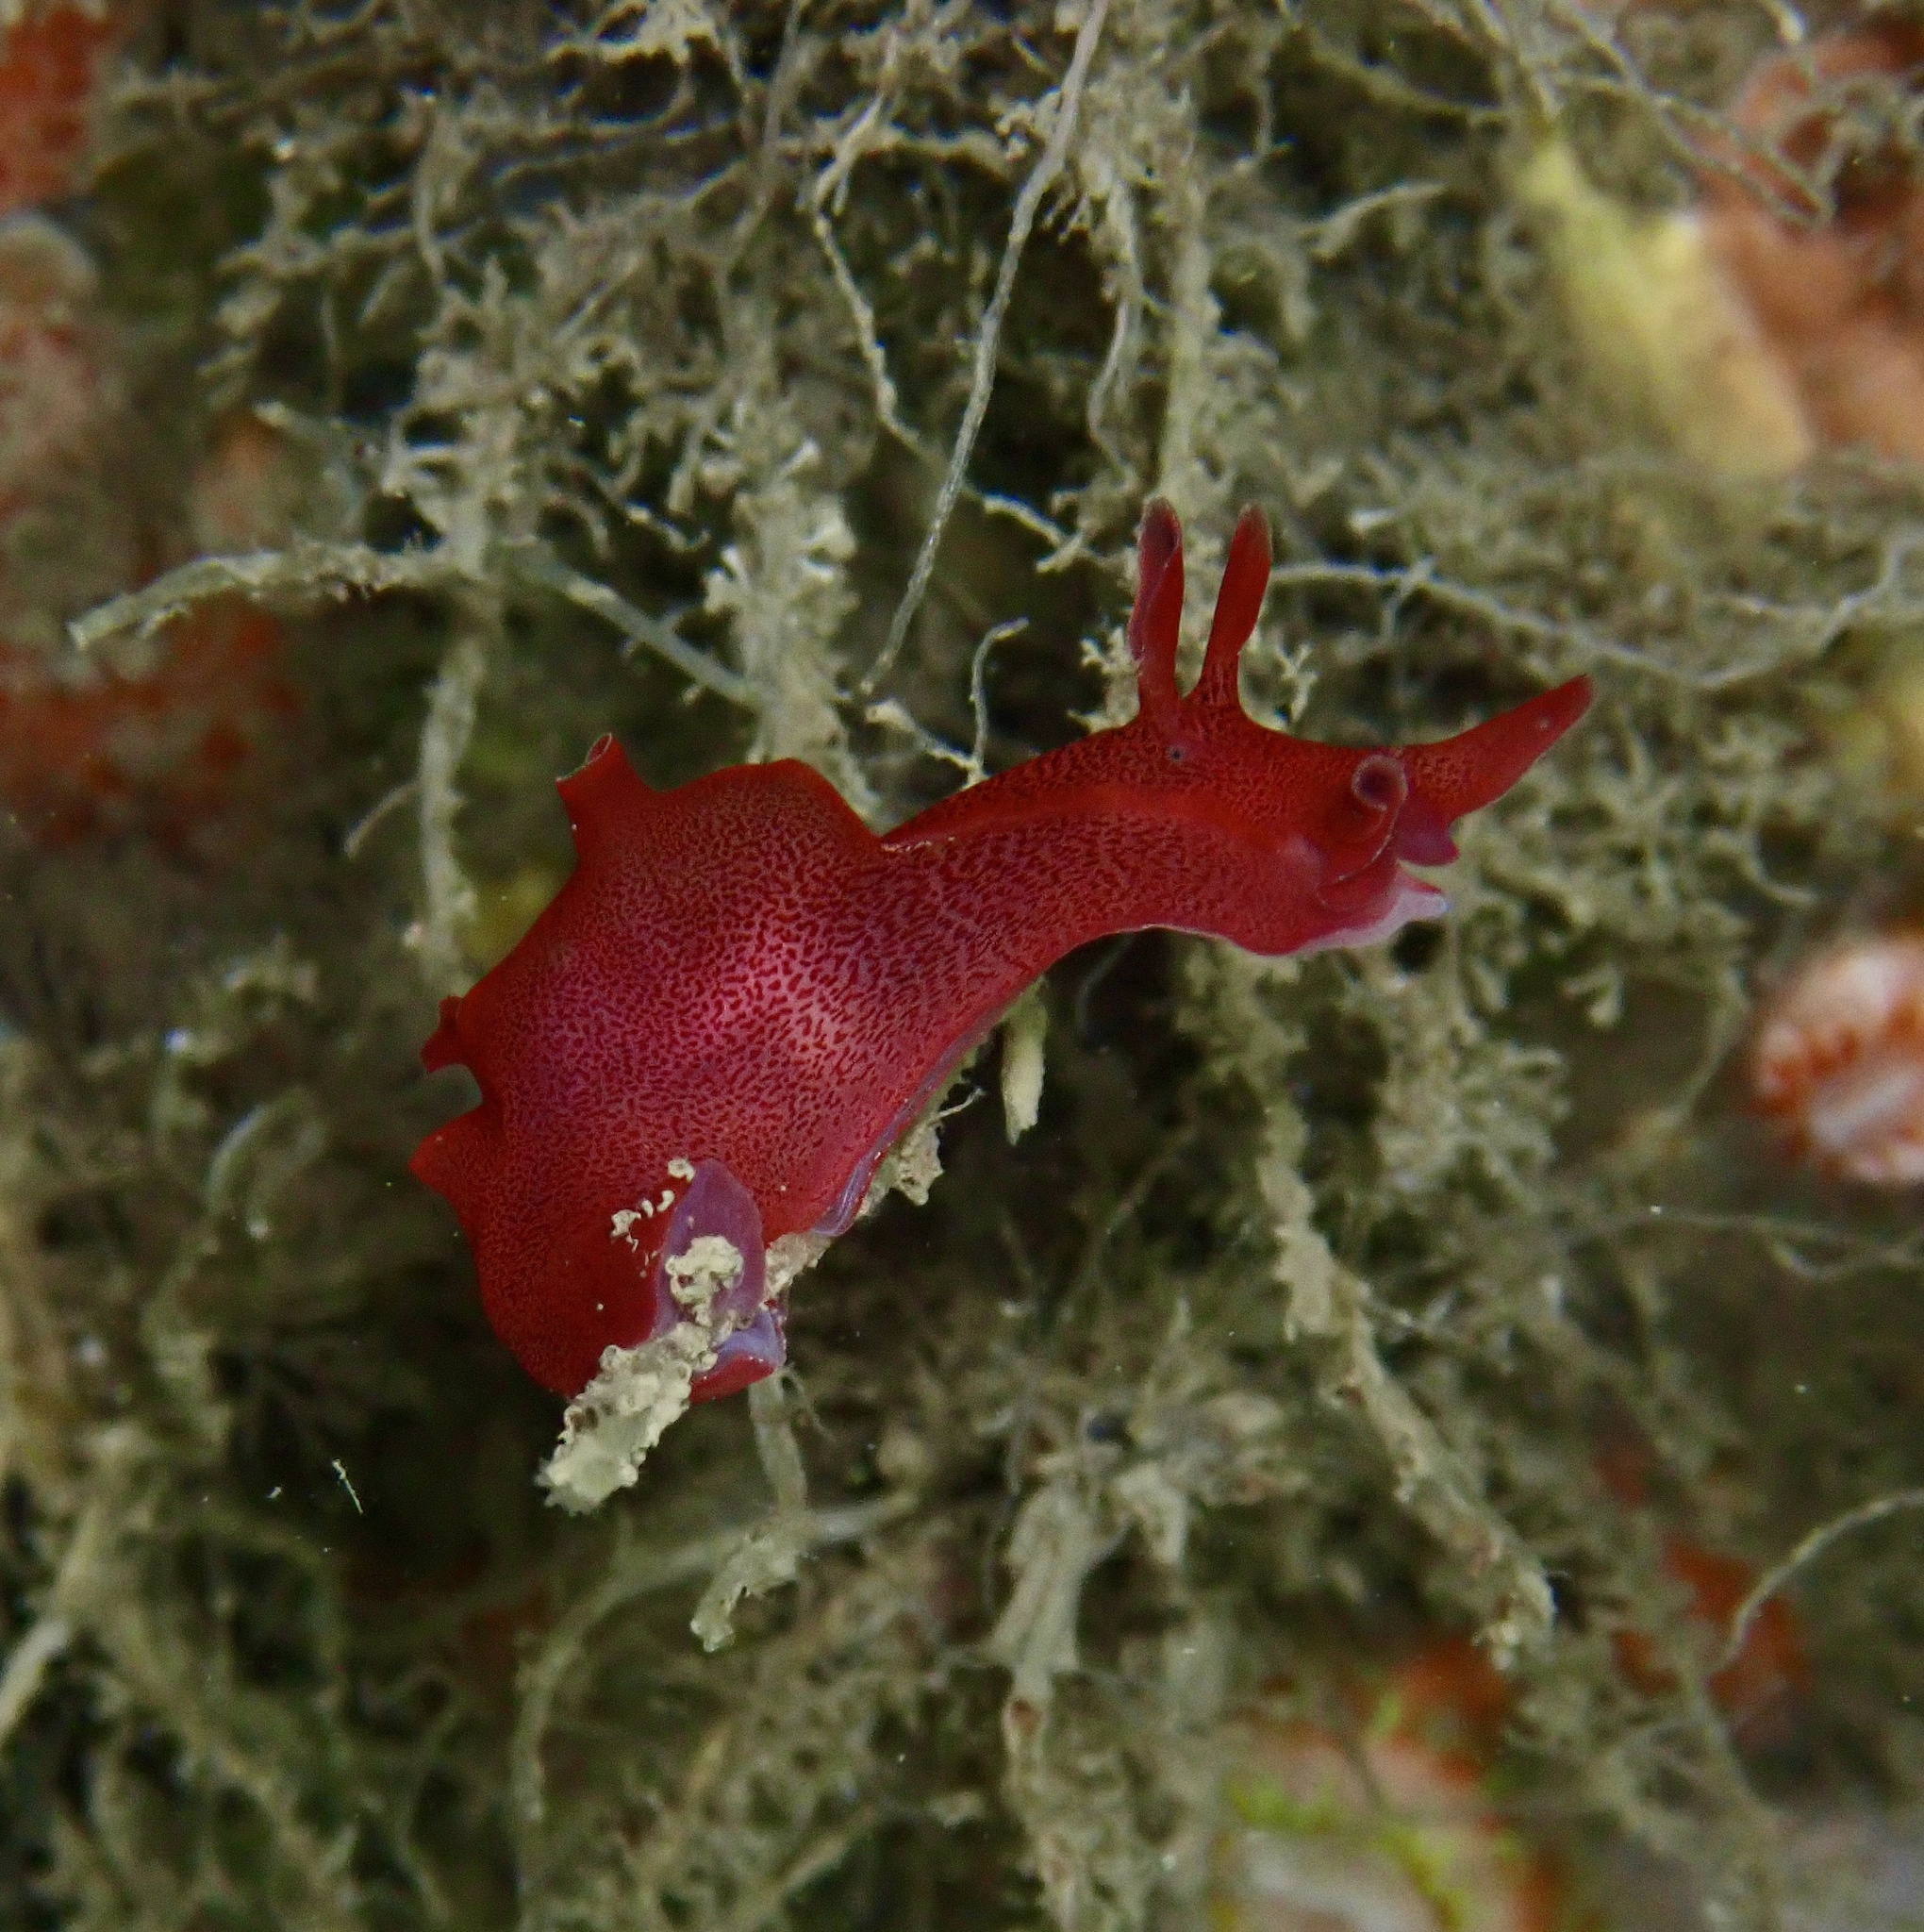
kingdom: Animalia
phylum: Mollusca
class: Gastropoda
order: Aplysiida
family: Aplysiidae
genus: Aplysia
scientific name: Aplysia punctata
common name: Common sea hare
